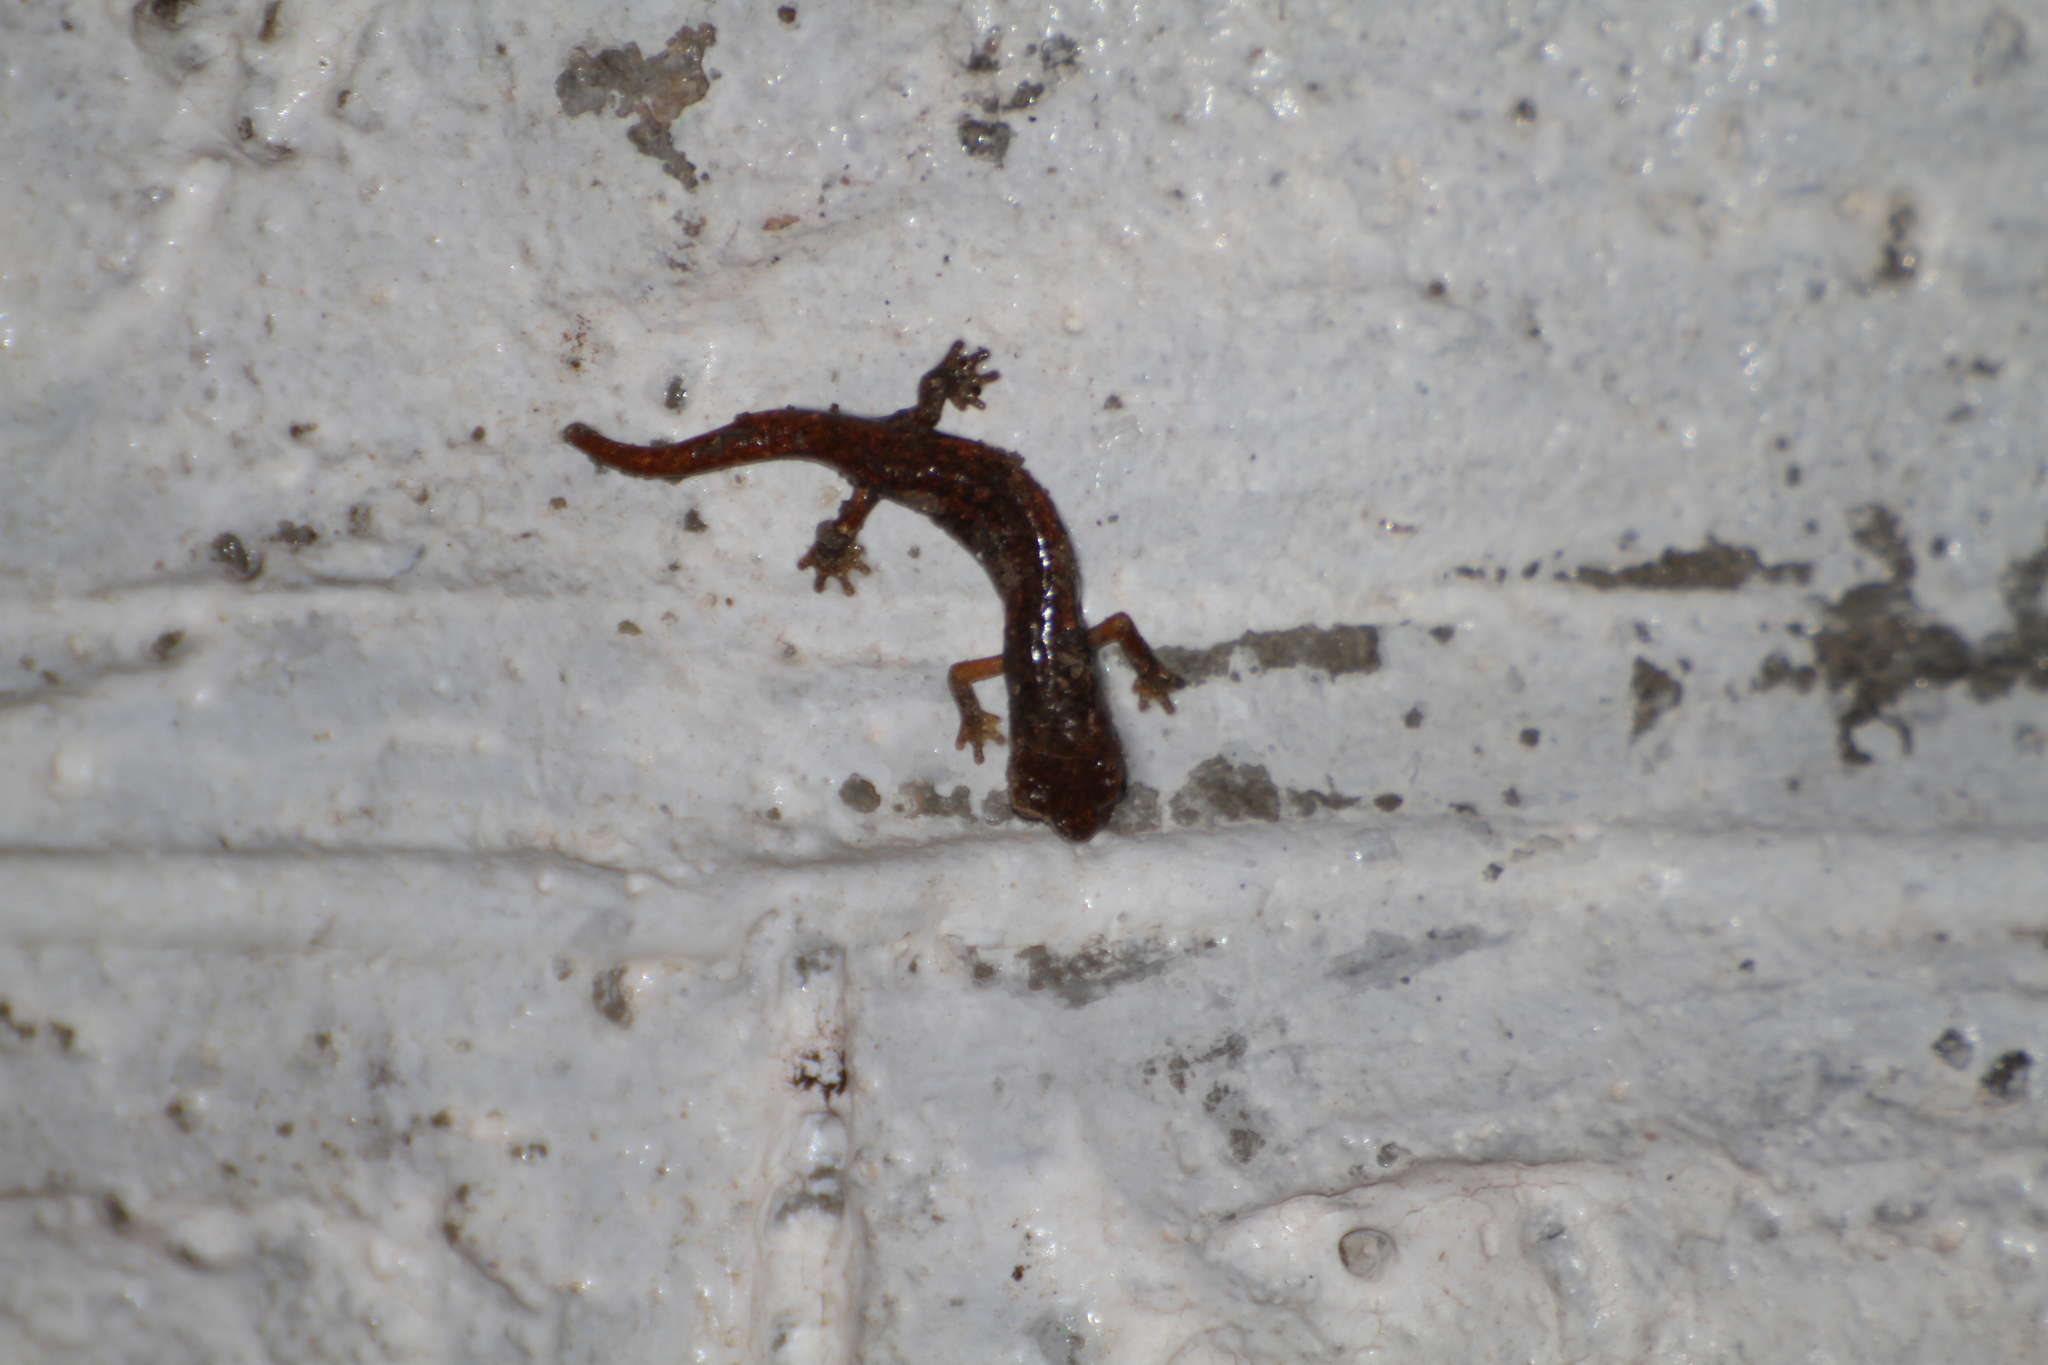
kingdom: Animalia
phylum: Chordata
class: Amphibia
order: Caudata
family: Plethodontidae
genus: Speleomantes
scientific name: Speleomantes strinatii
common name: French cave salamander
